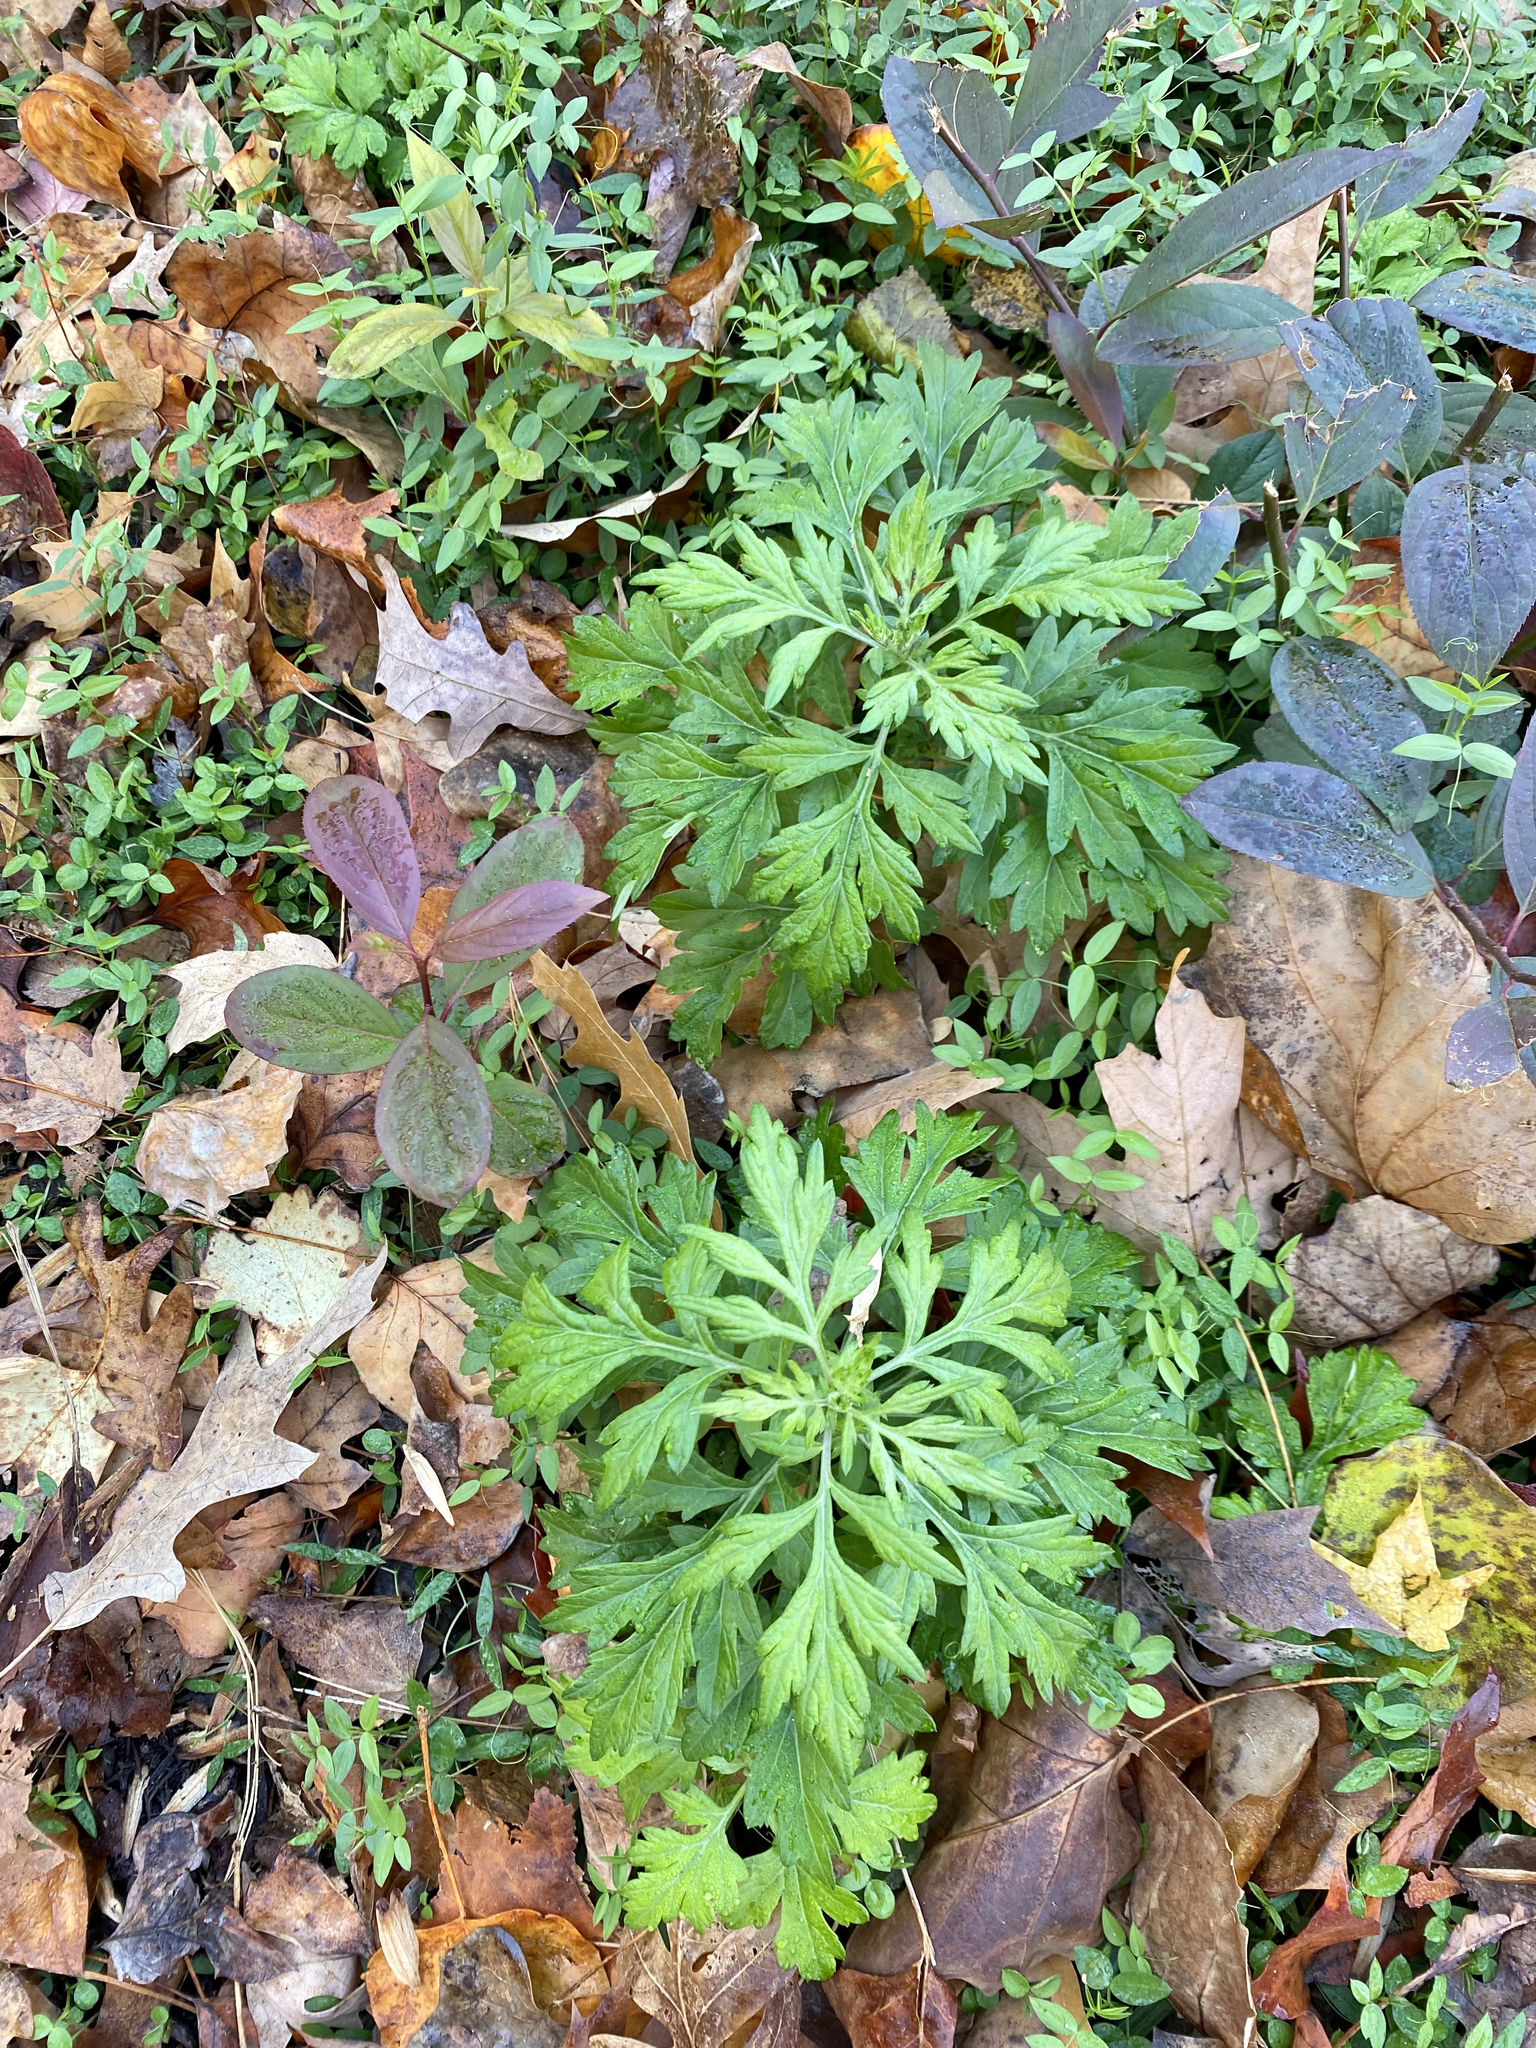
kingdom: Plantae
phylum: Tracheophyta
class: Magnoliopsida
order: Asterales
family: Asteraceae
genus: Artemisia
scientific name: Artemisia vulgaris
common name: Mugwort
